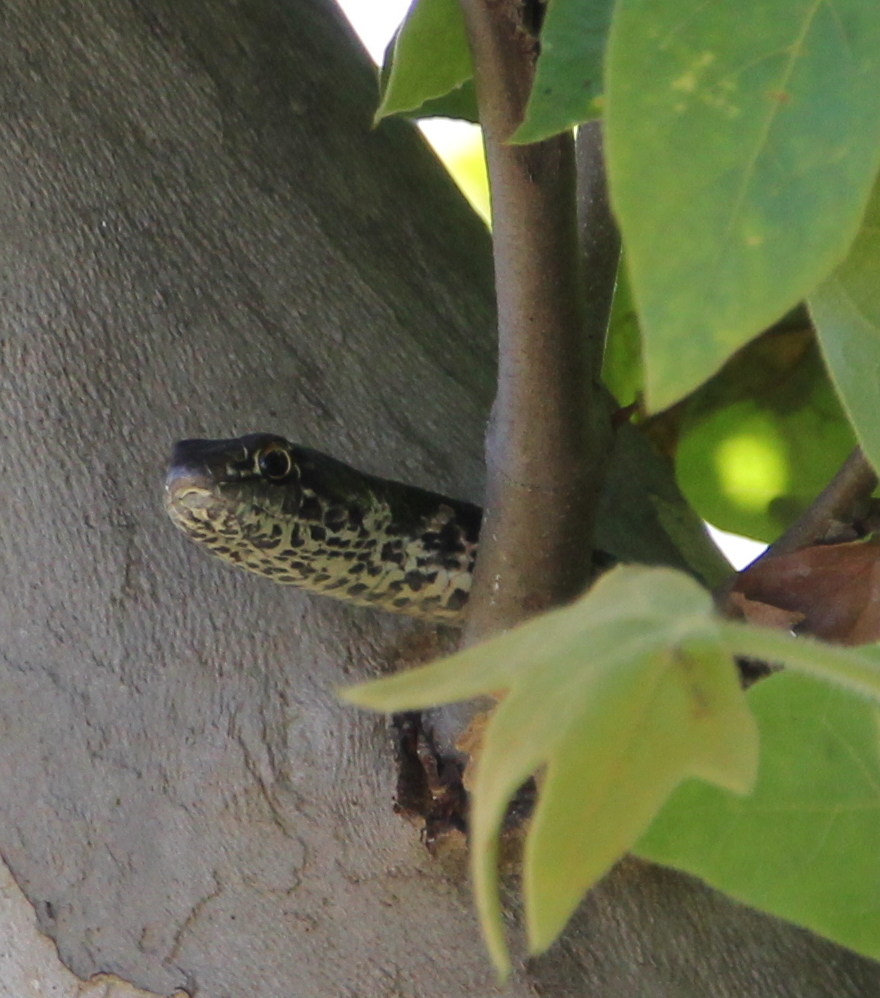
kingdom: Animalia
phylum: Chordata
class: Squamata
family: Colubridae
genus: Masticophis
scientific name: Masticophis flagellum
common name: Coachwhip
